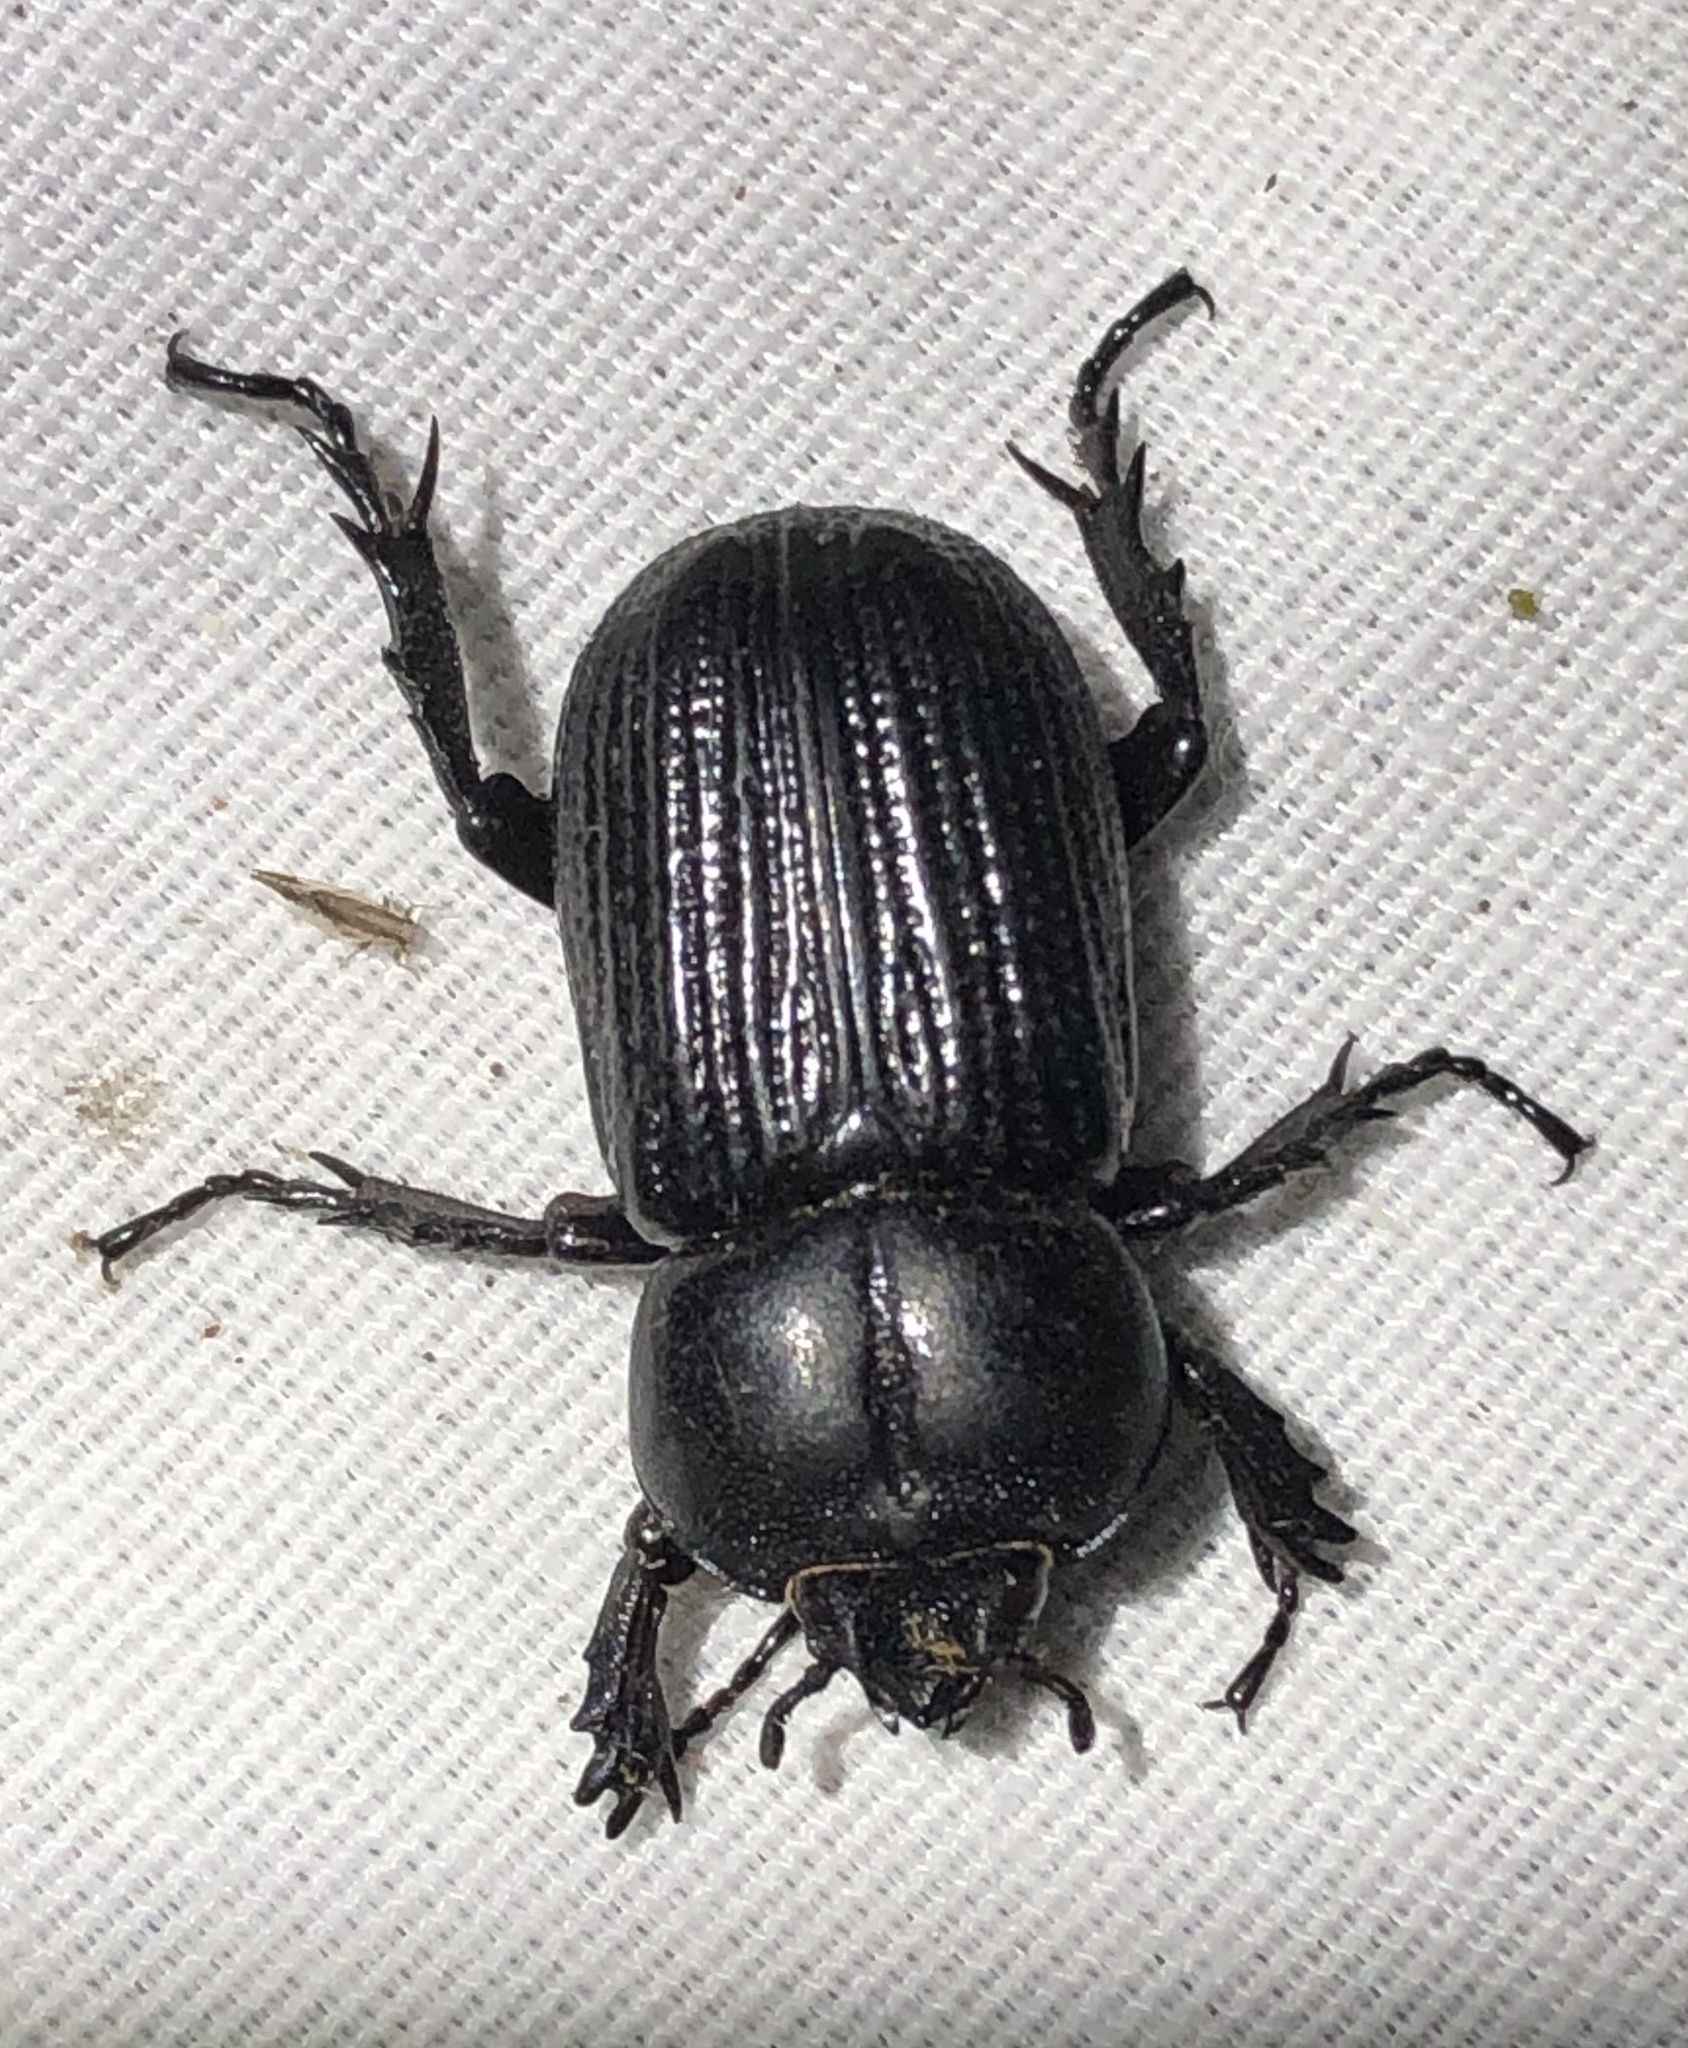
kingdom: Animalia
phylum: Arthropoda
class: Insecta
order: Coleoptera
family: Scarabaeidae
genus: Phileurus
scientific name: Phileurus valgus
